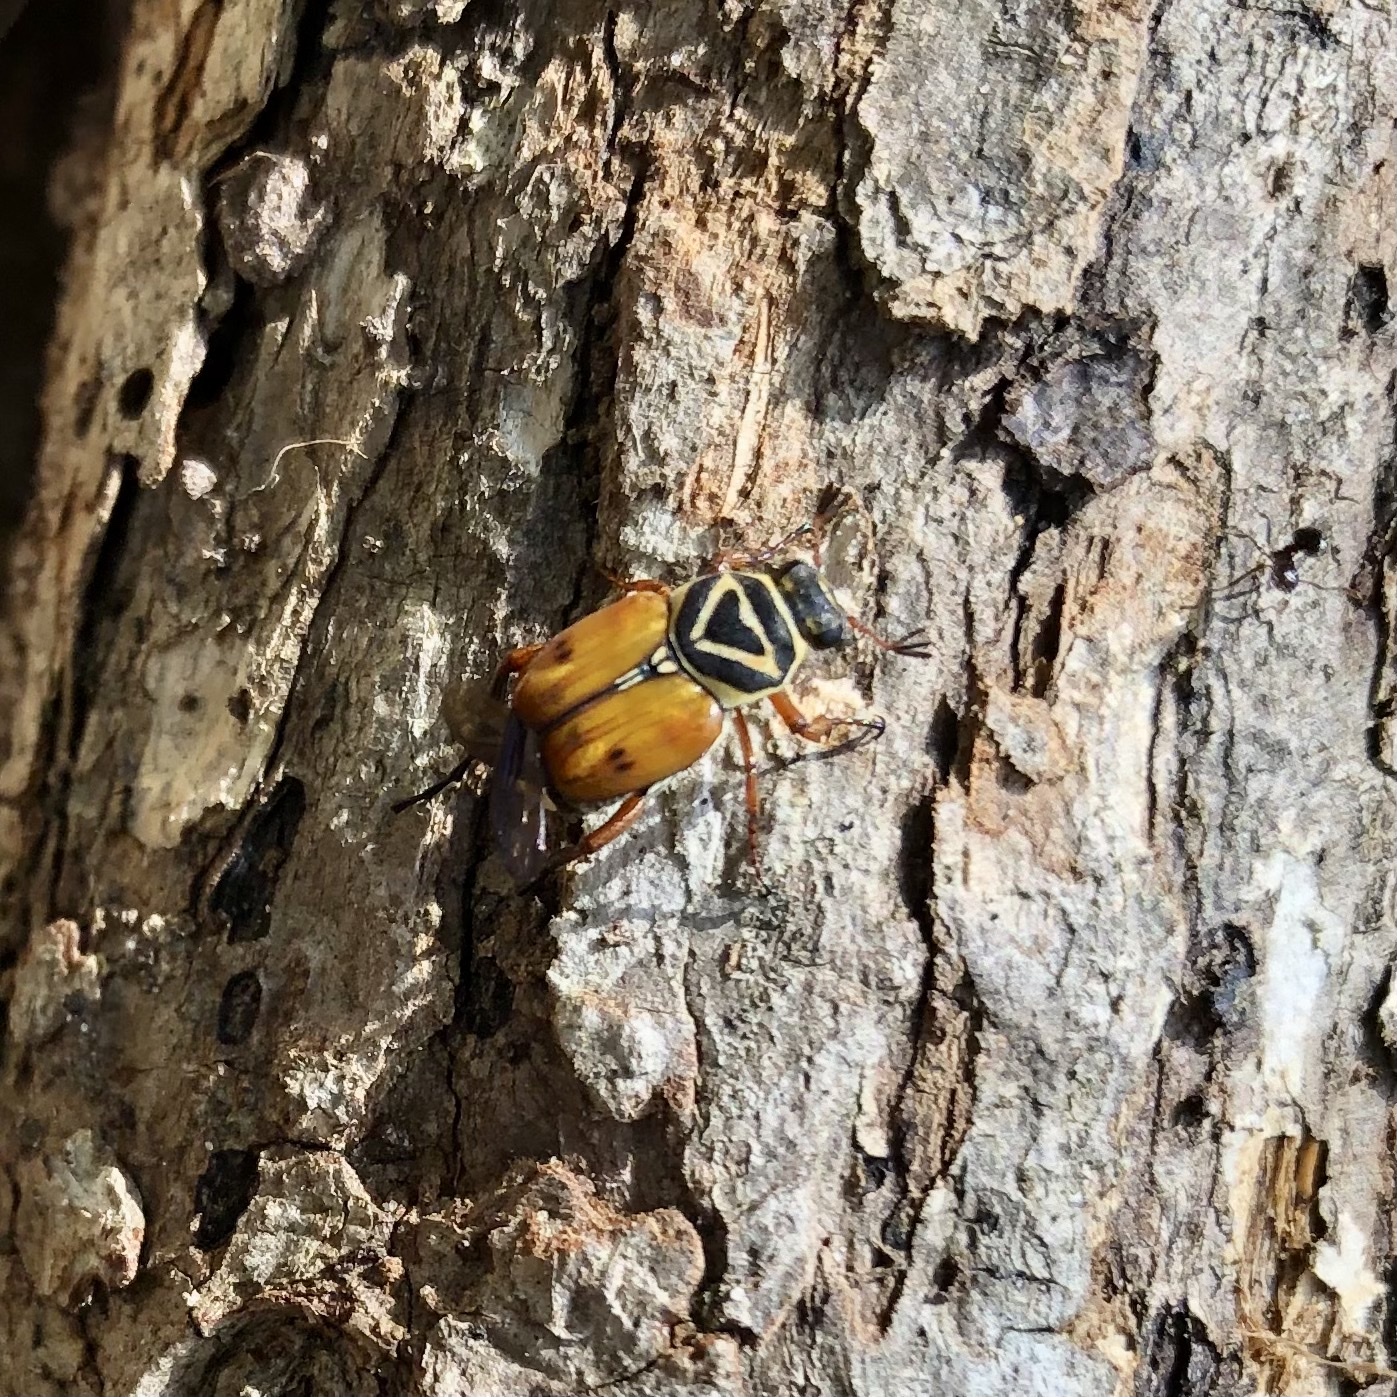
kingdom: Animalia
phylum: Arthropoda
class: Insecta
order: Coleoptera
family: Scarabaeidae
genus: Trigonopeltastes
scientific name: Trigonopeltastes delta
